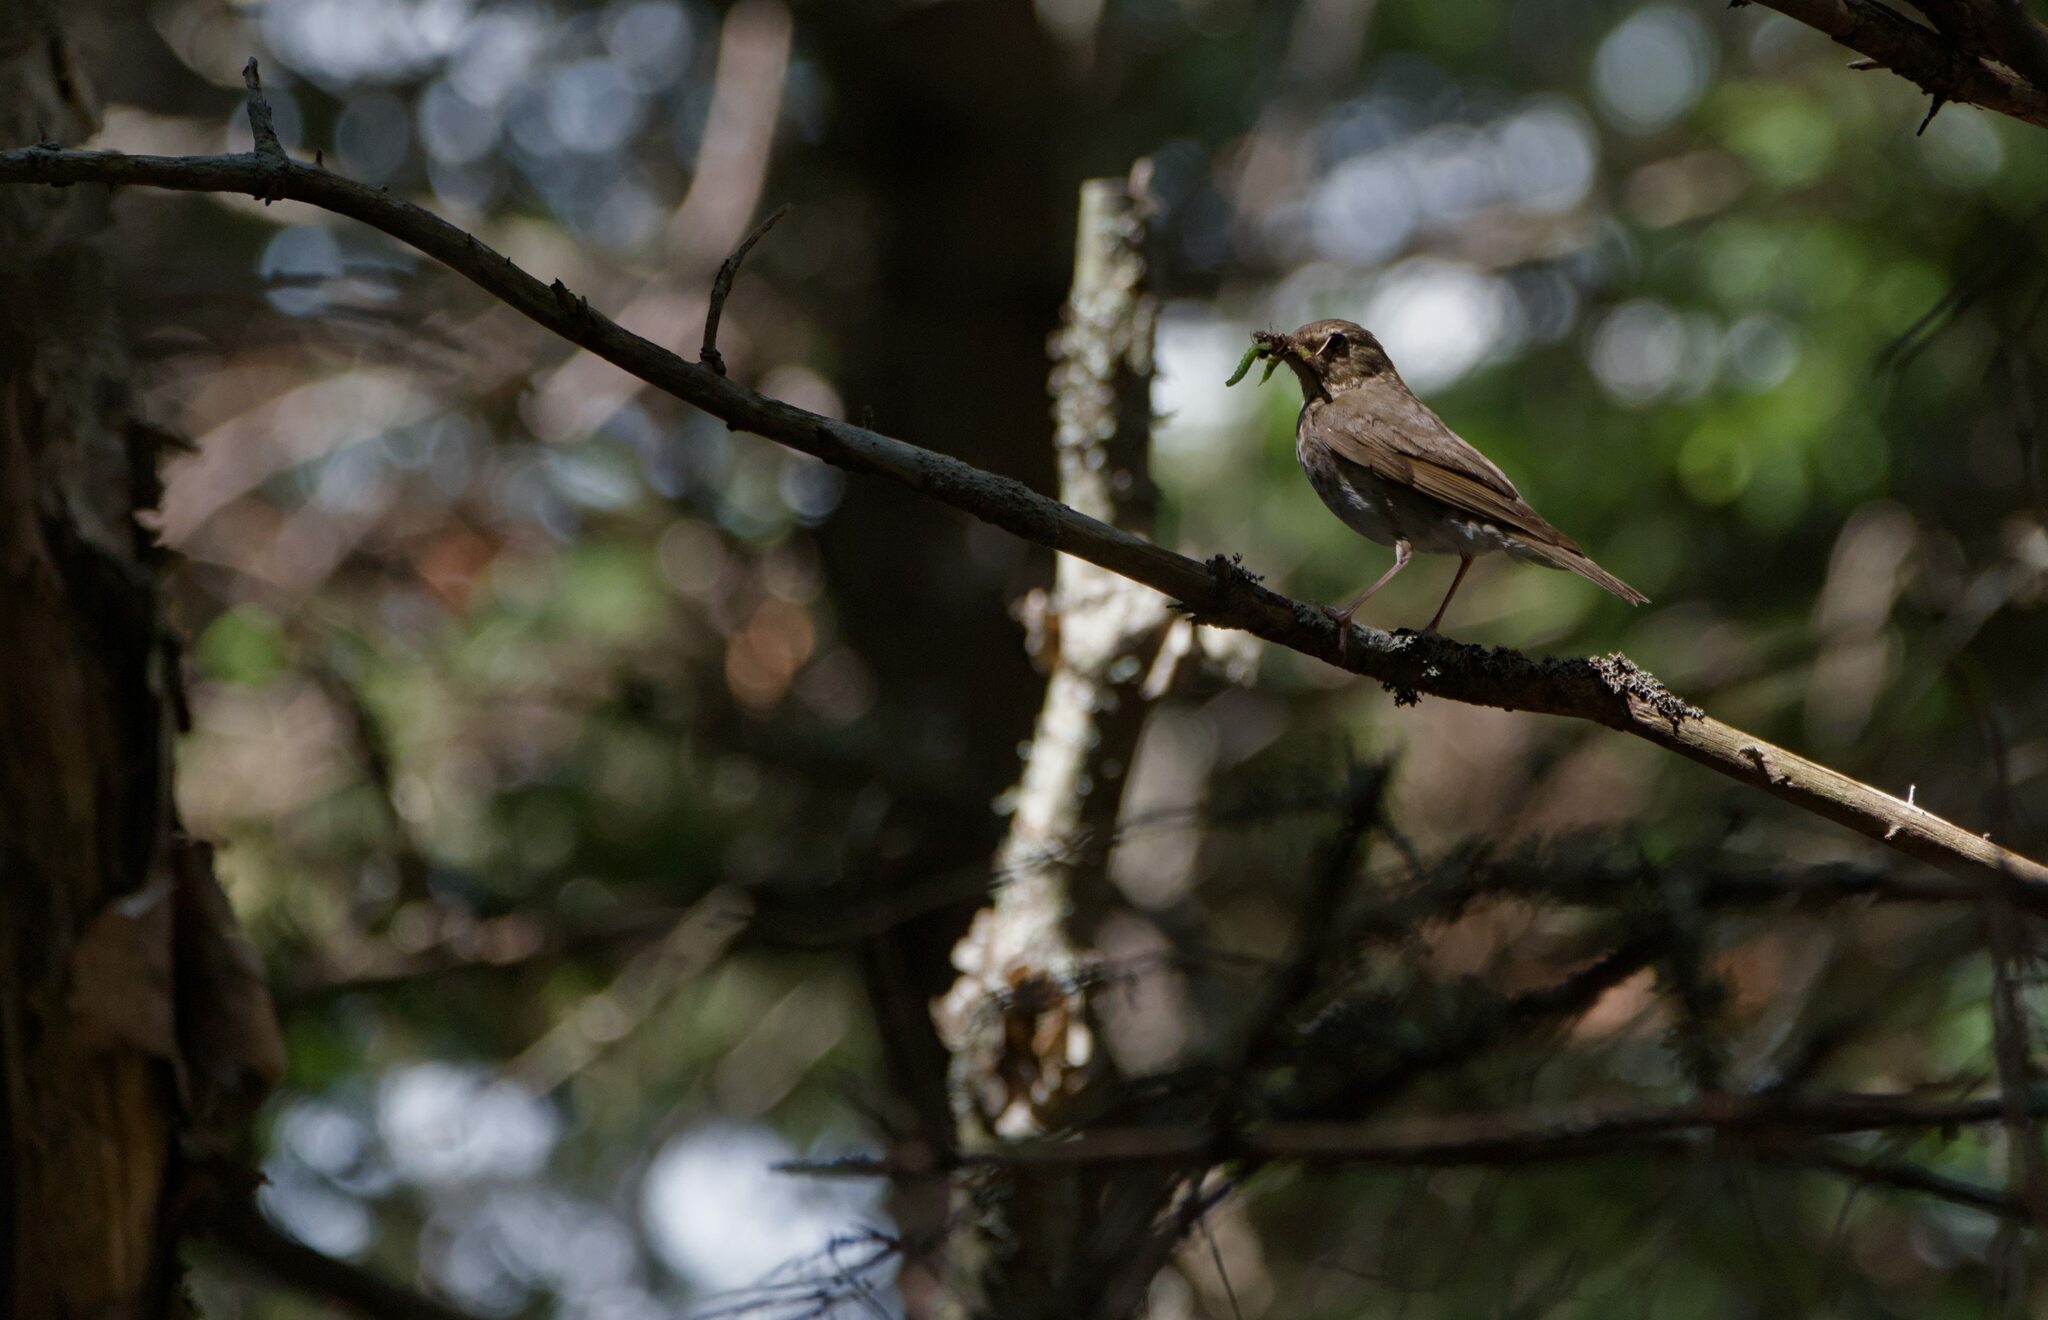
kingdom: Animalia
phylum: Chordata
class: Aves
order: Passeriformes
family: Turdidae
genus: Catharus
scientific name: Catharus ustulatus
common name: Swainson's thrush
